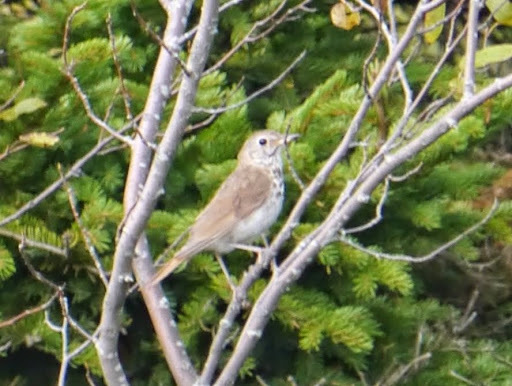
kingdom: Animalia
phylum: Chordata
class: Aves
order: Passeriformes
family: Turdidae
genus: Hylocichla
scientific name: Hylocichla mustelina
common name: Wood thrush
